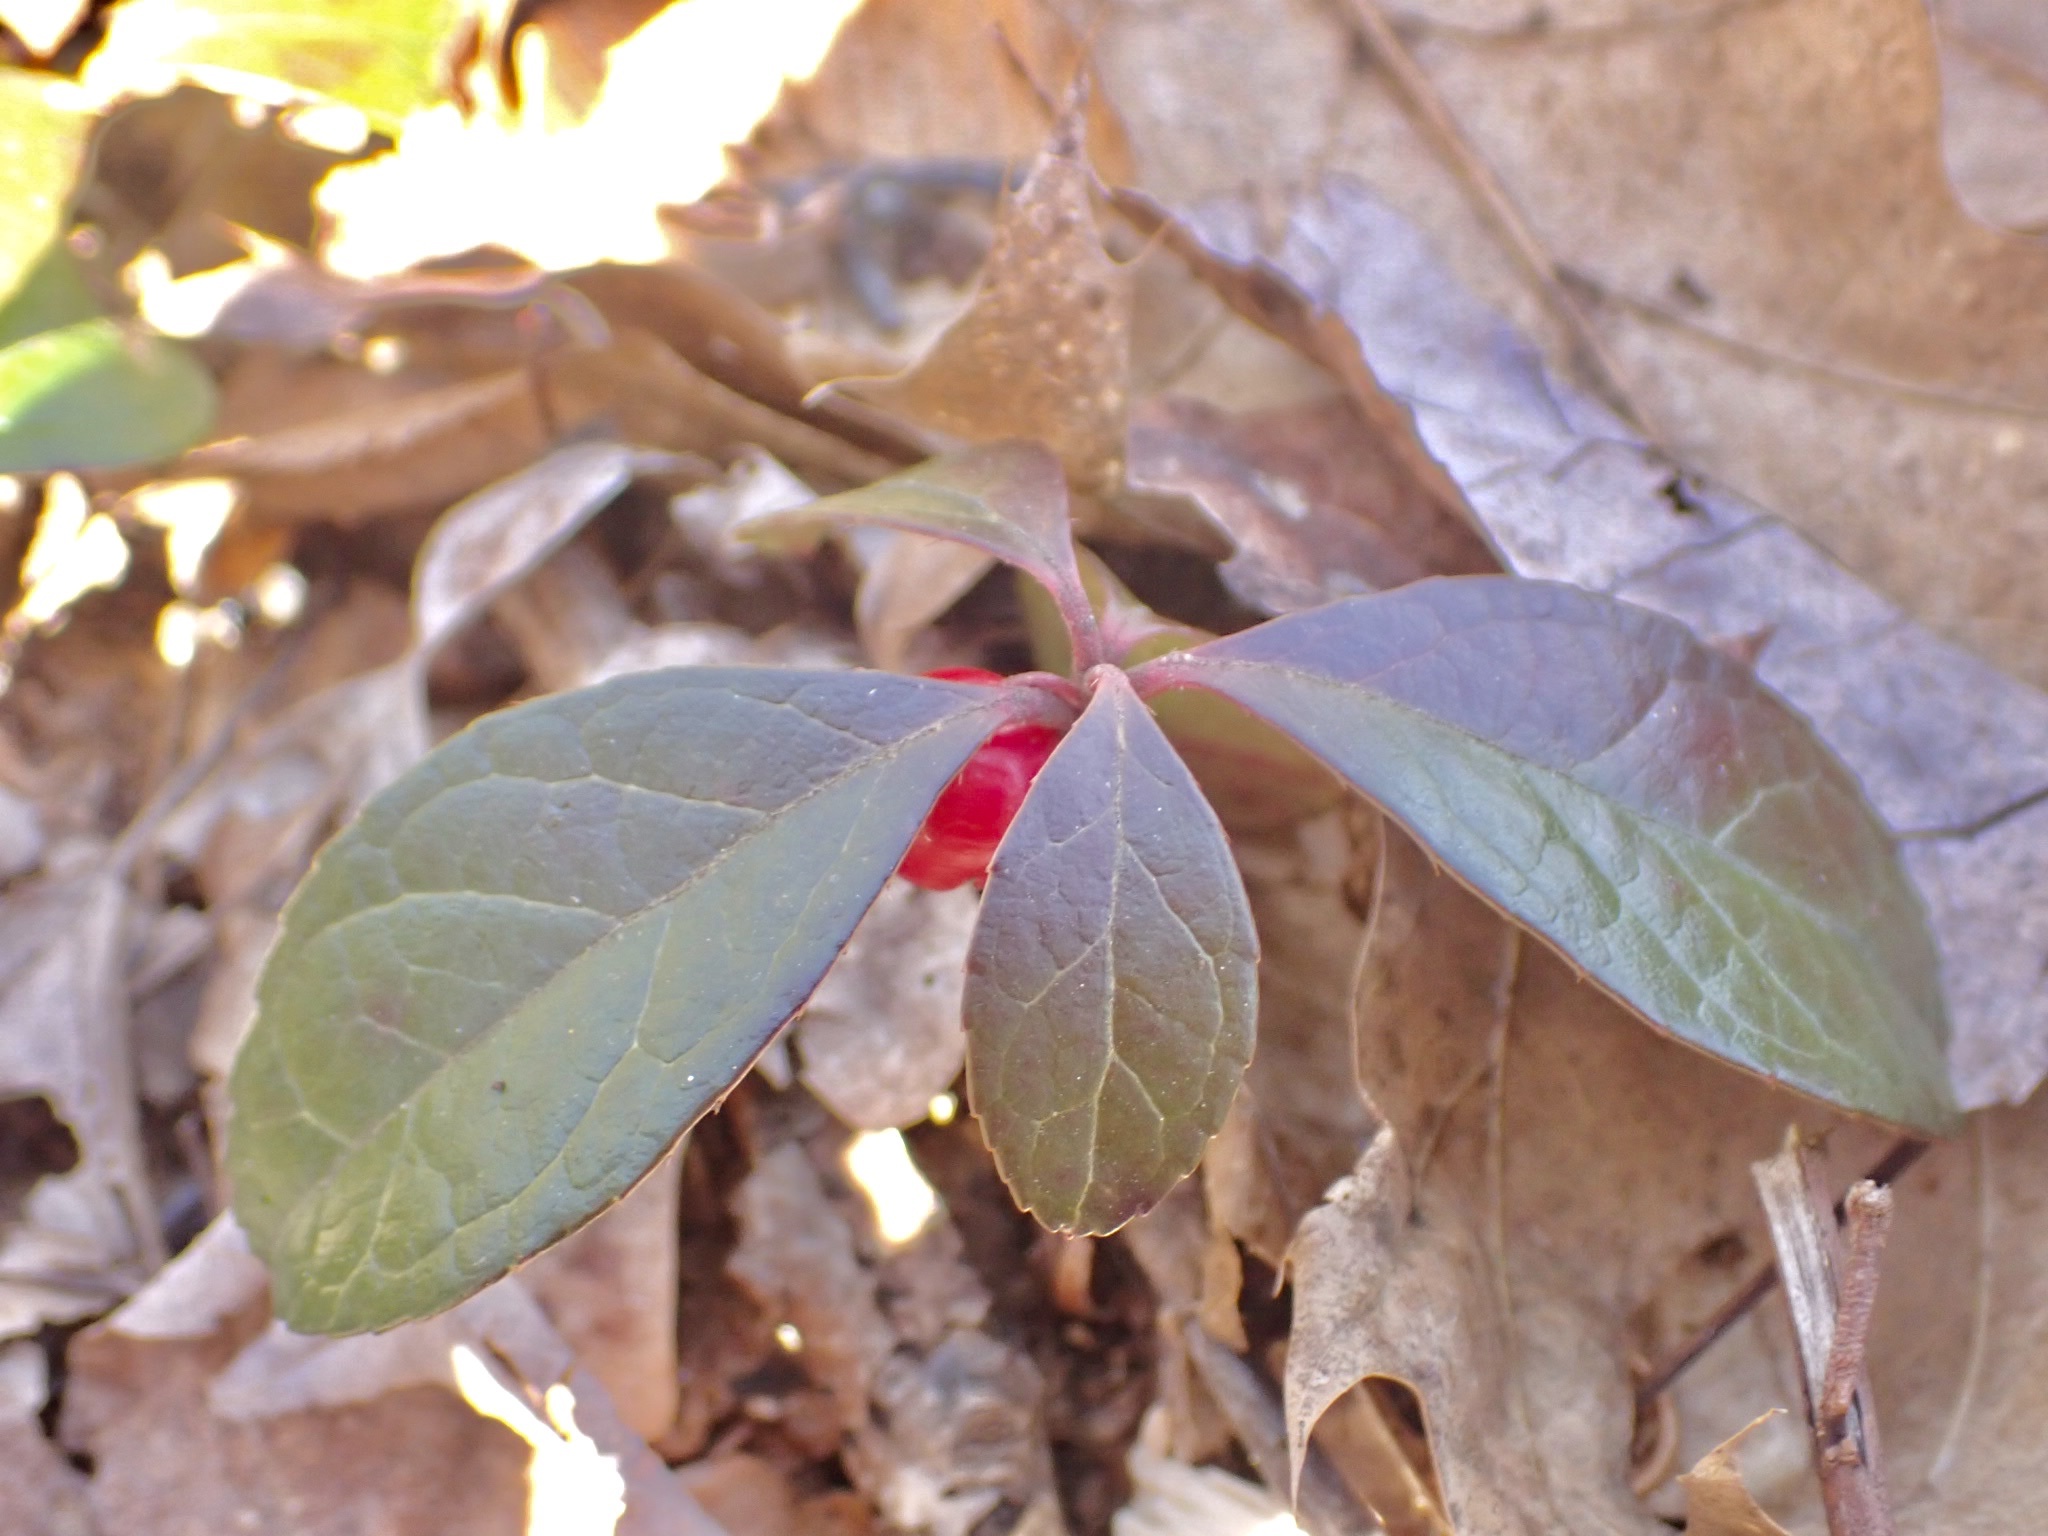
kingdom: Plantae
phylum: Tracheophyta
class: Magnoliopsida
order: Ericales
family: Ericaceae
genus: Gaultheria
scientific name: Gaultheria procumbens
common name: Checkerberry
